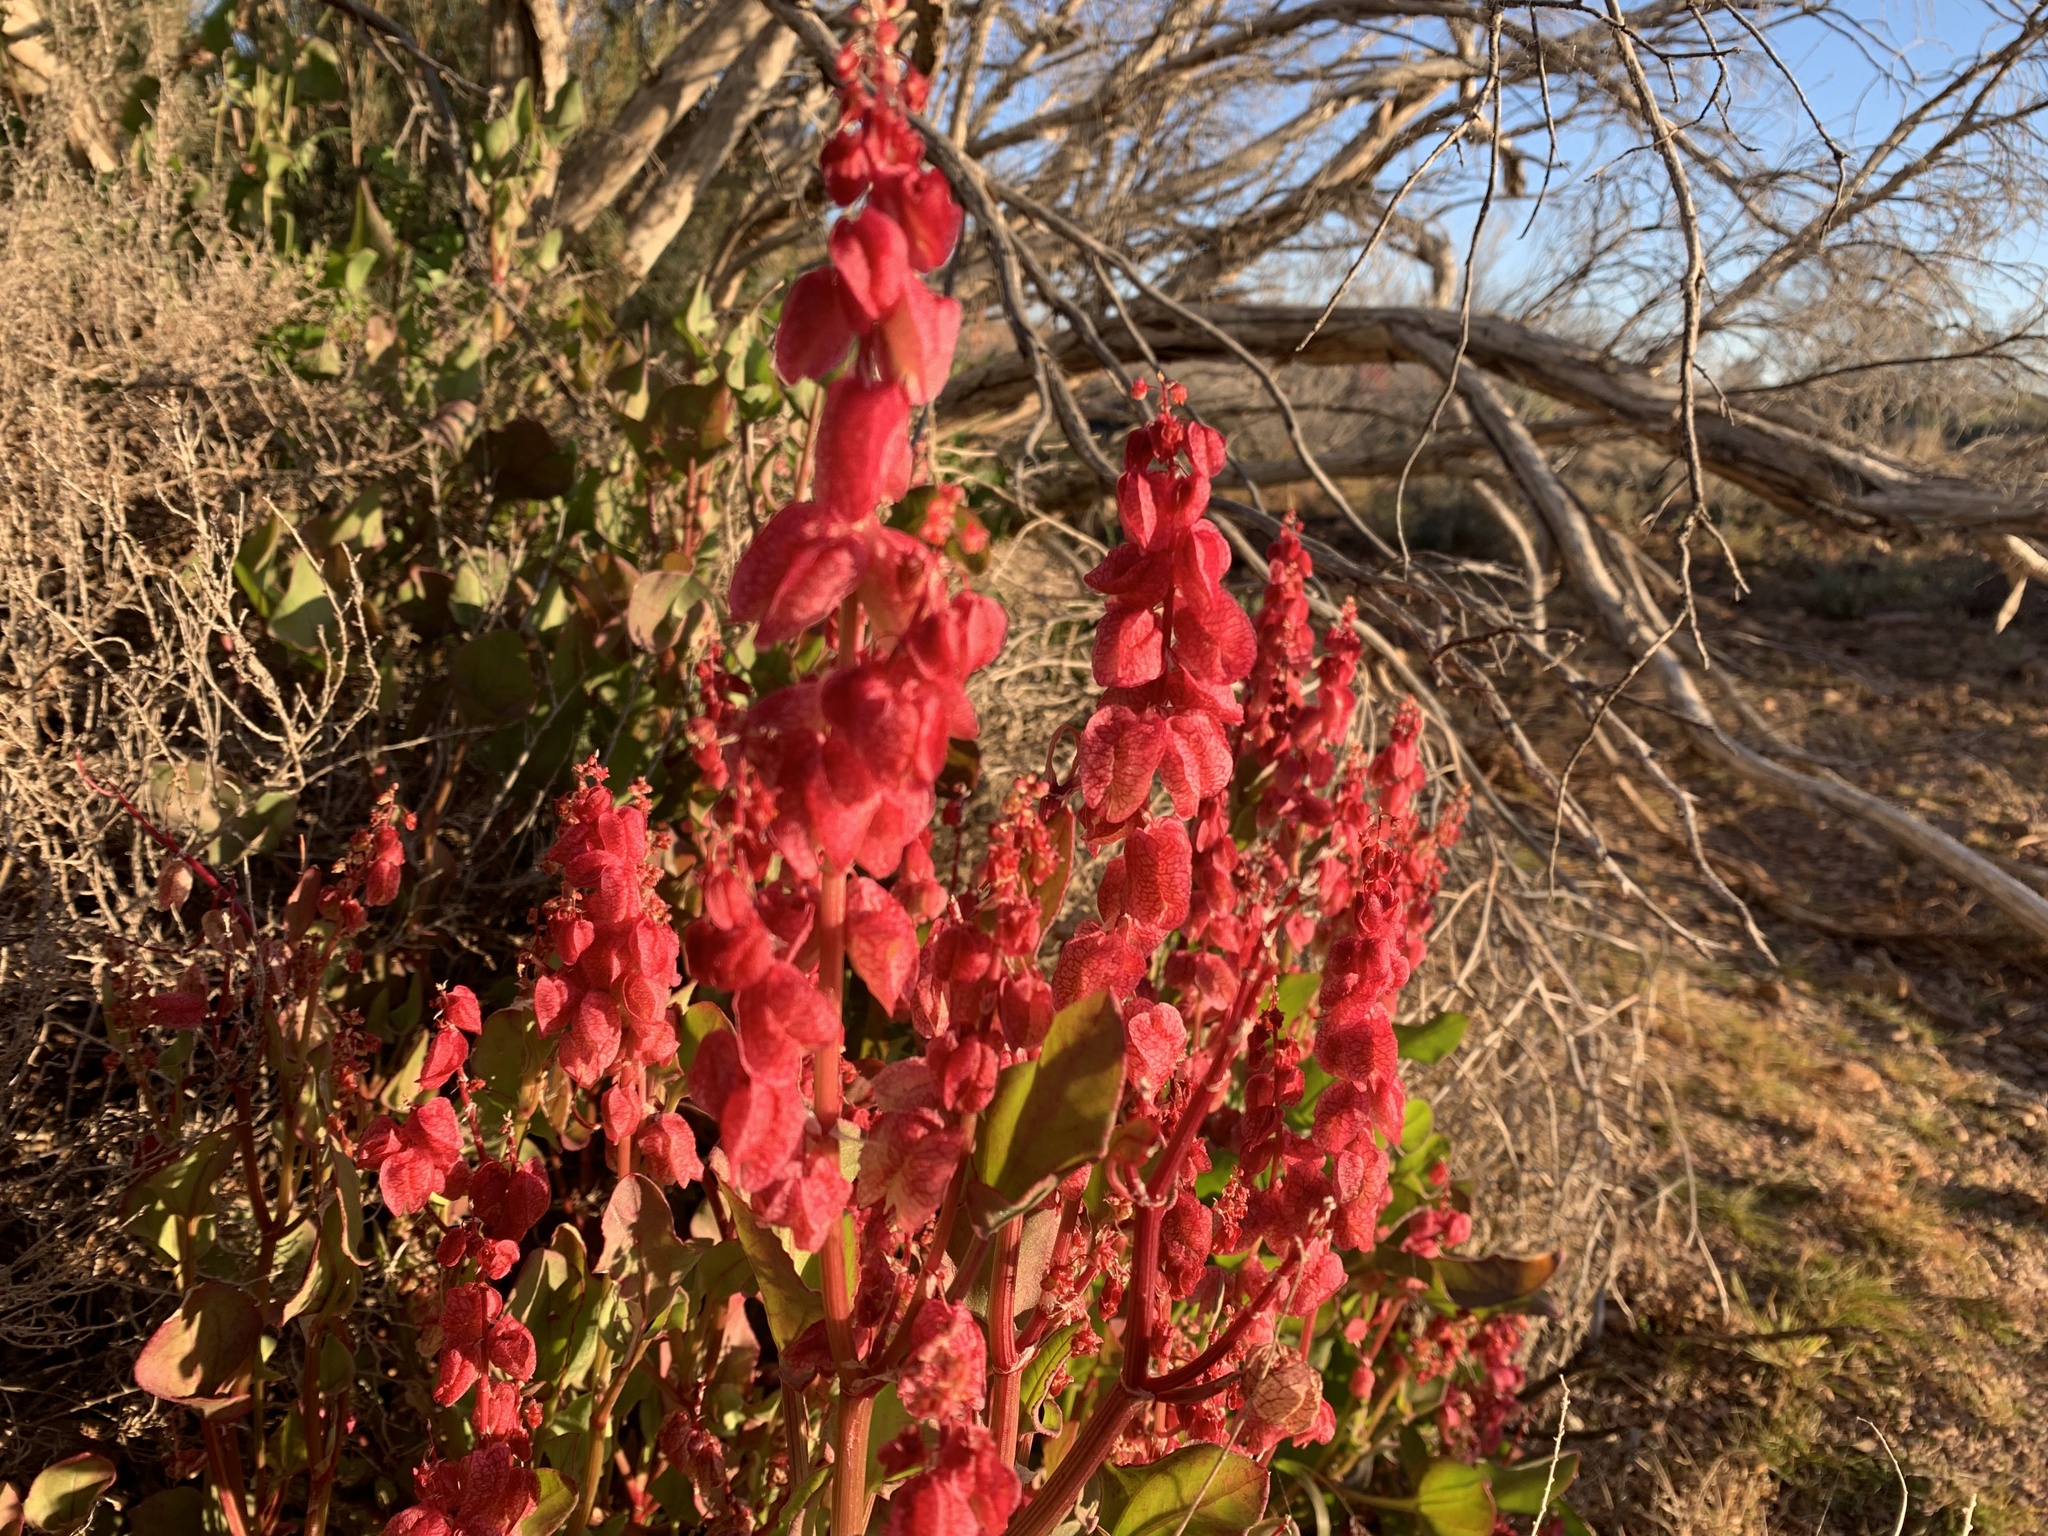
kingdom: Plantae
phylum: Tracheophyta
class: Magnoliopsida
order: Caryophyllales
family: Polygonaceae
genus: Rumex
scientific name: Rumex vesicarius
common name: Bladder dock
